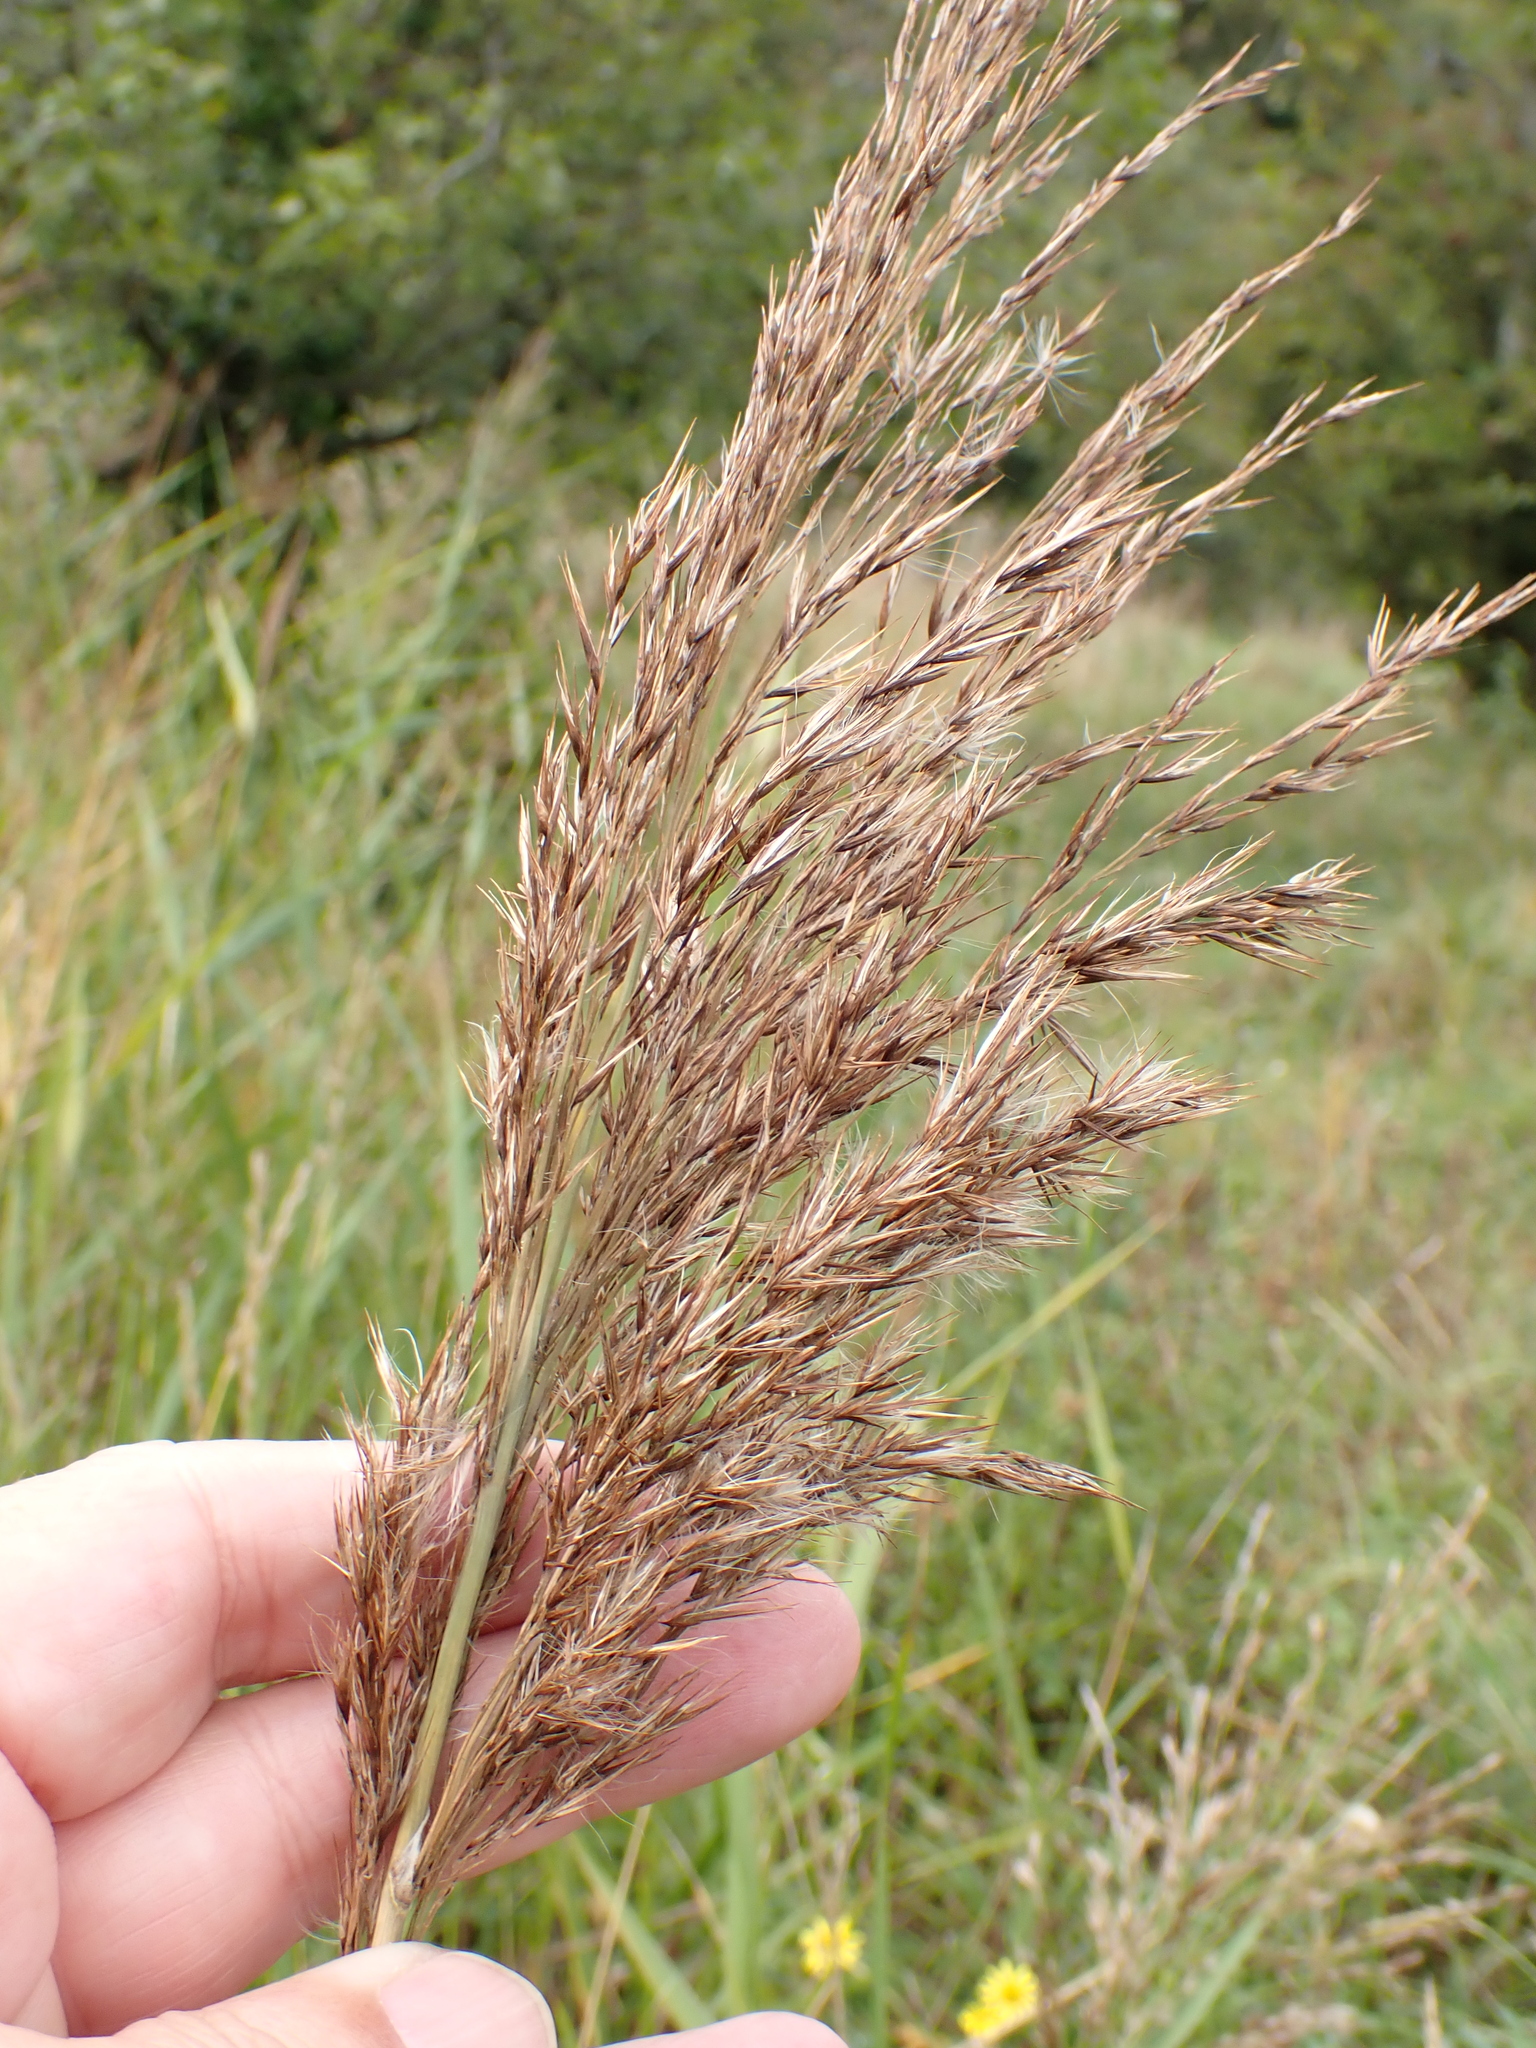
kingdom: Plantae
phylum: Tracheophyta
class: Liliopsida
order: Poales
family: Poaceae
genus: Phragmites
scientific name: Phragmites australis
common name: Common reed
